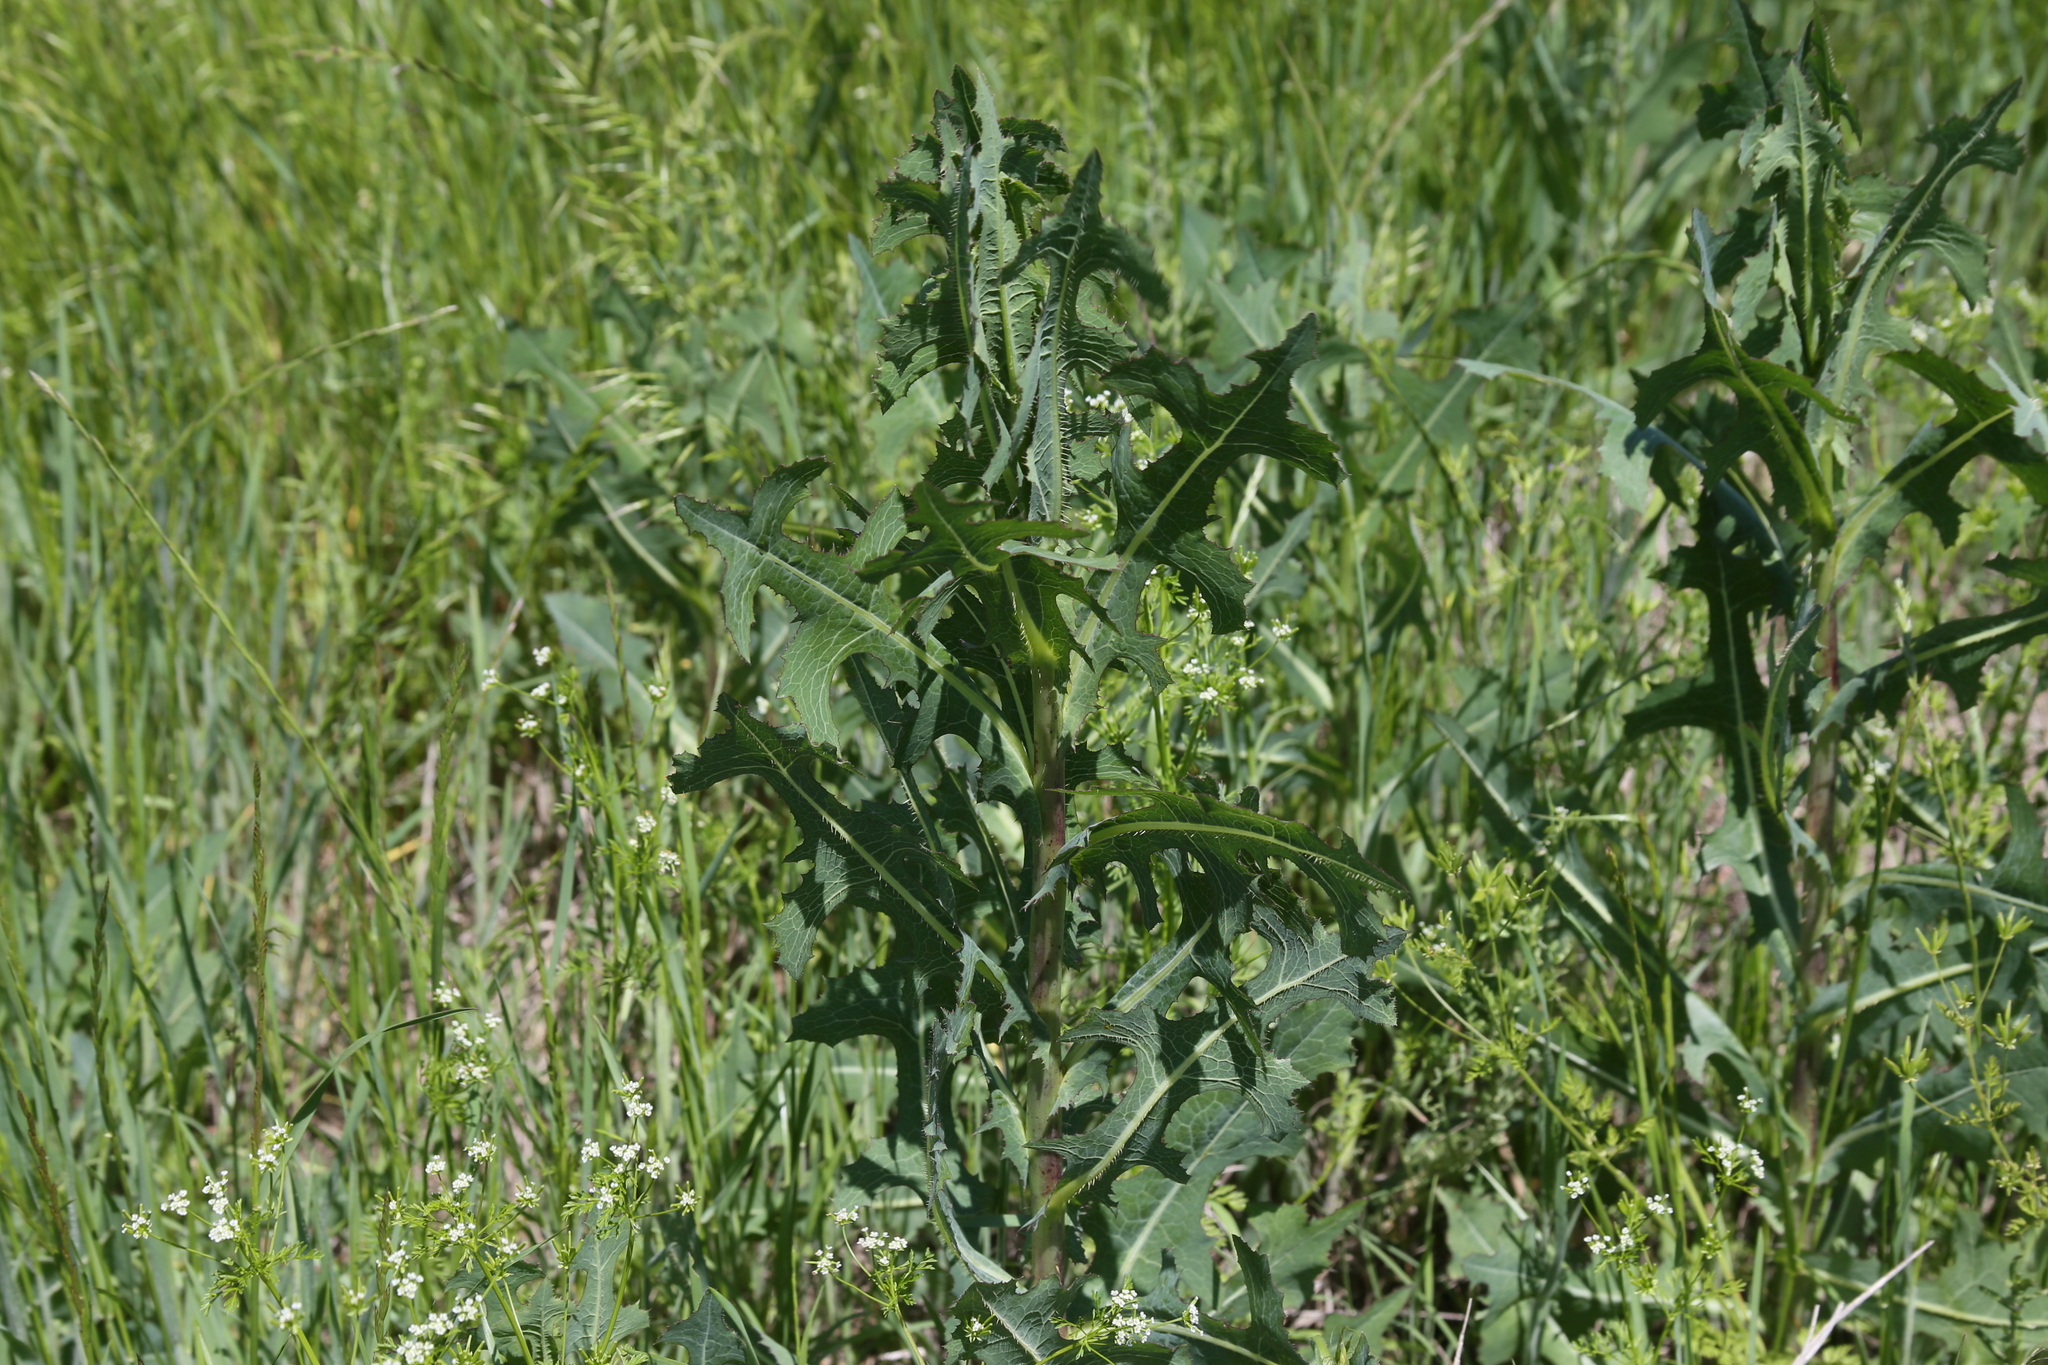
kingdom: Plantae
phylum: Tracheophyta
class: Magnoliopsida
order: Asterales
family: Asteraceae
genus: Lactuca
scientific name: Lactuca serriola
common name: Prickly lettuce
